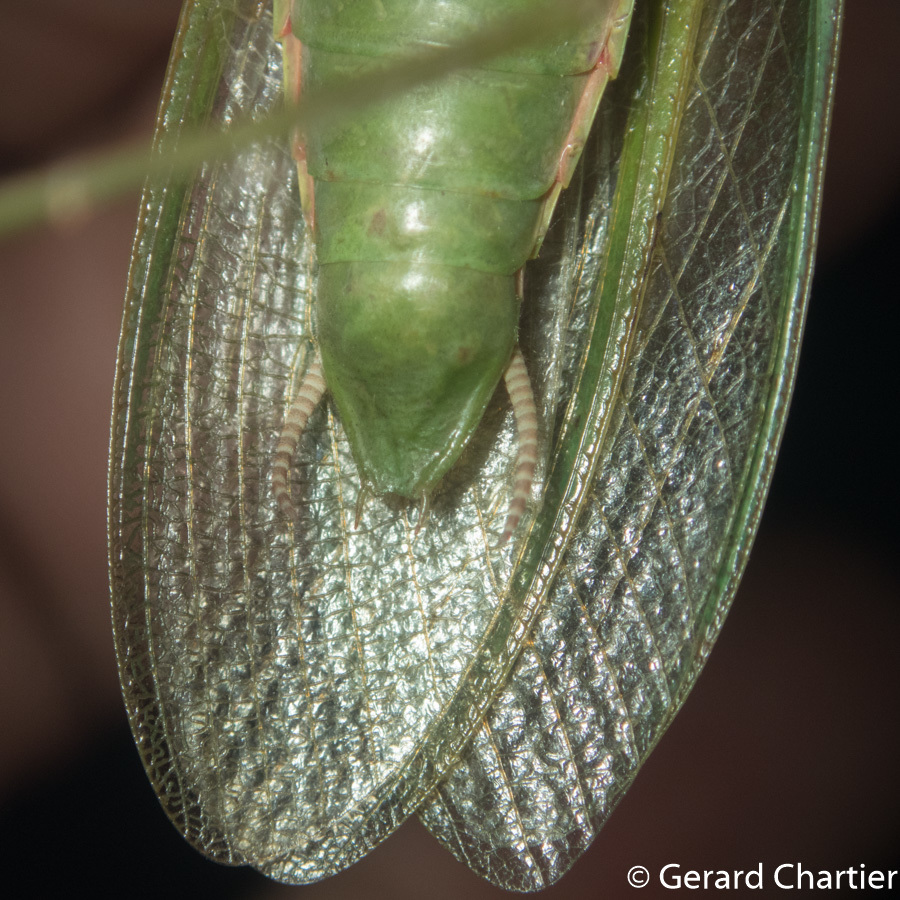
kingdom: Animalia
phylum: Arthropoda
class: Insecta
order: Mantodea
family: Mantidae
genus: Hierodula
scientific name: Hierodula venosa
